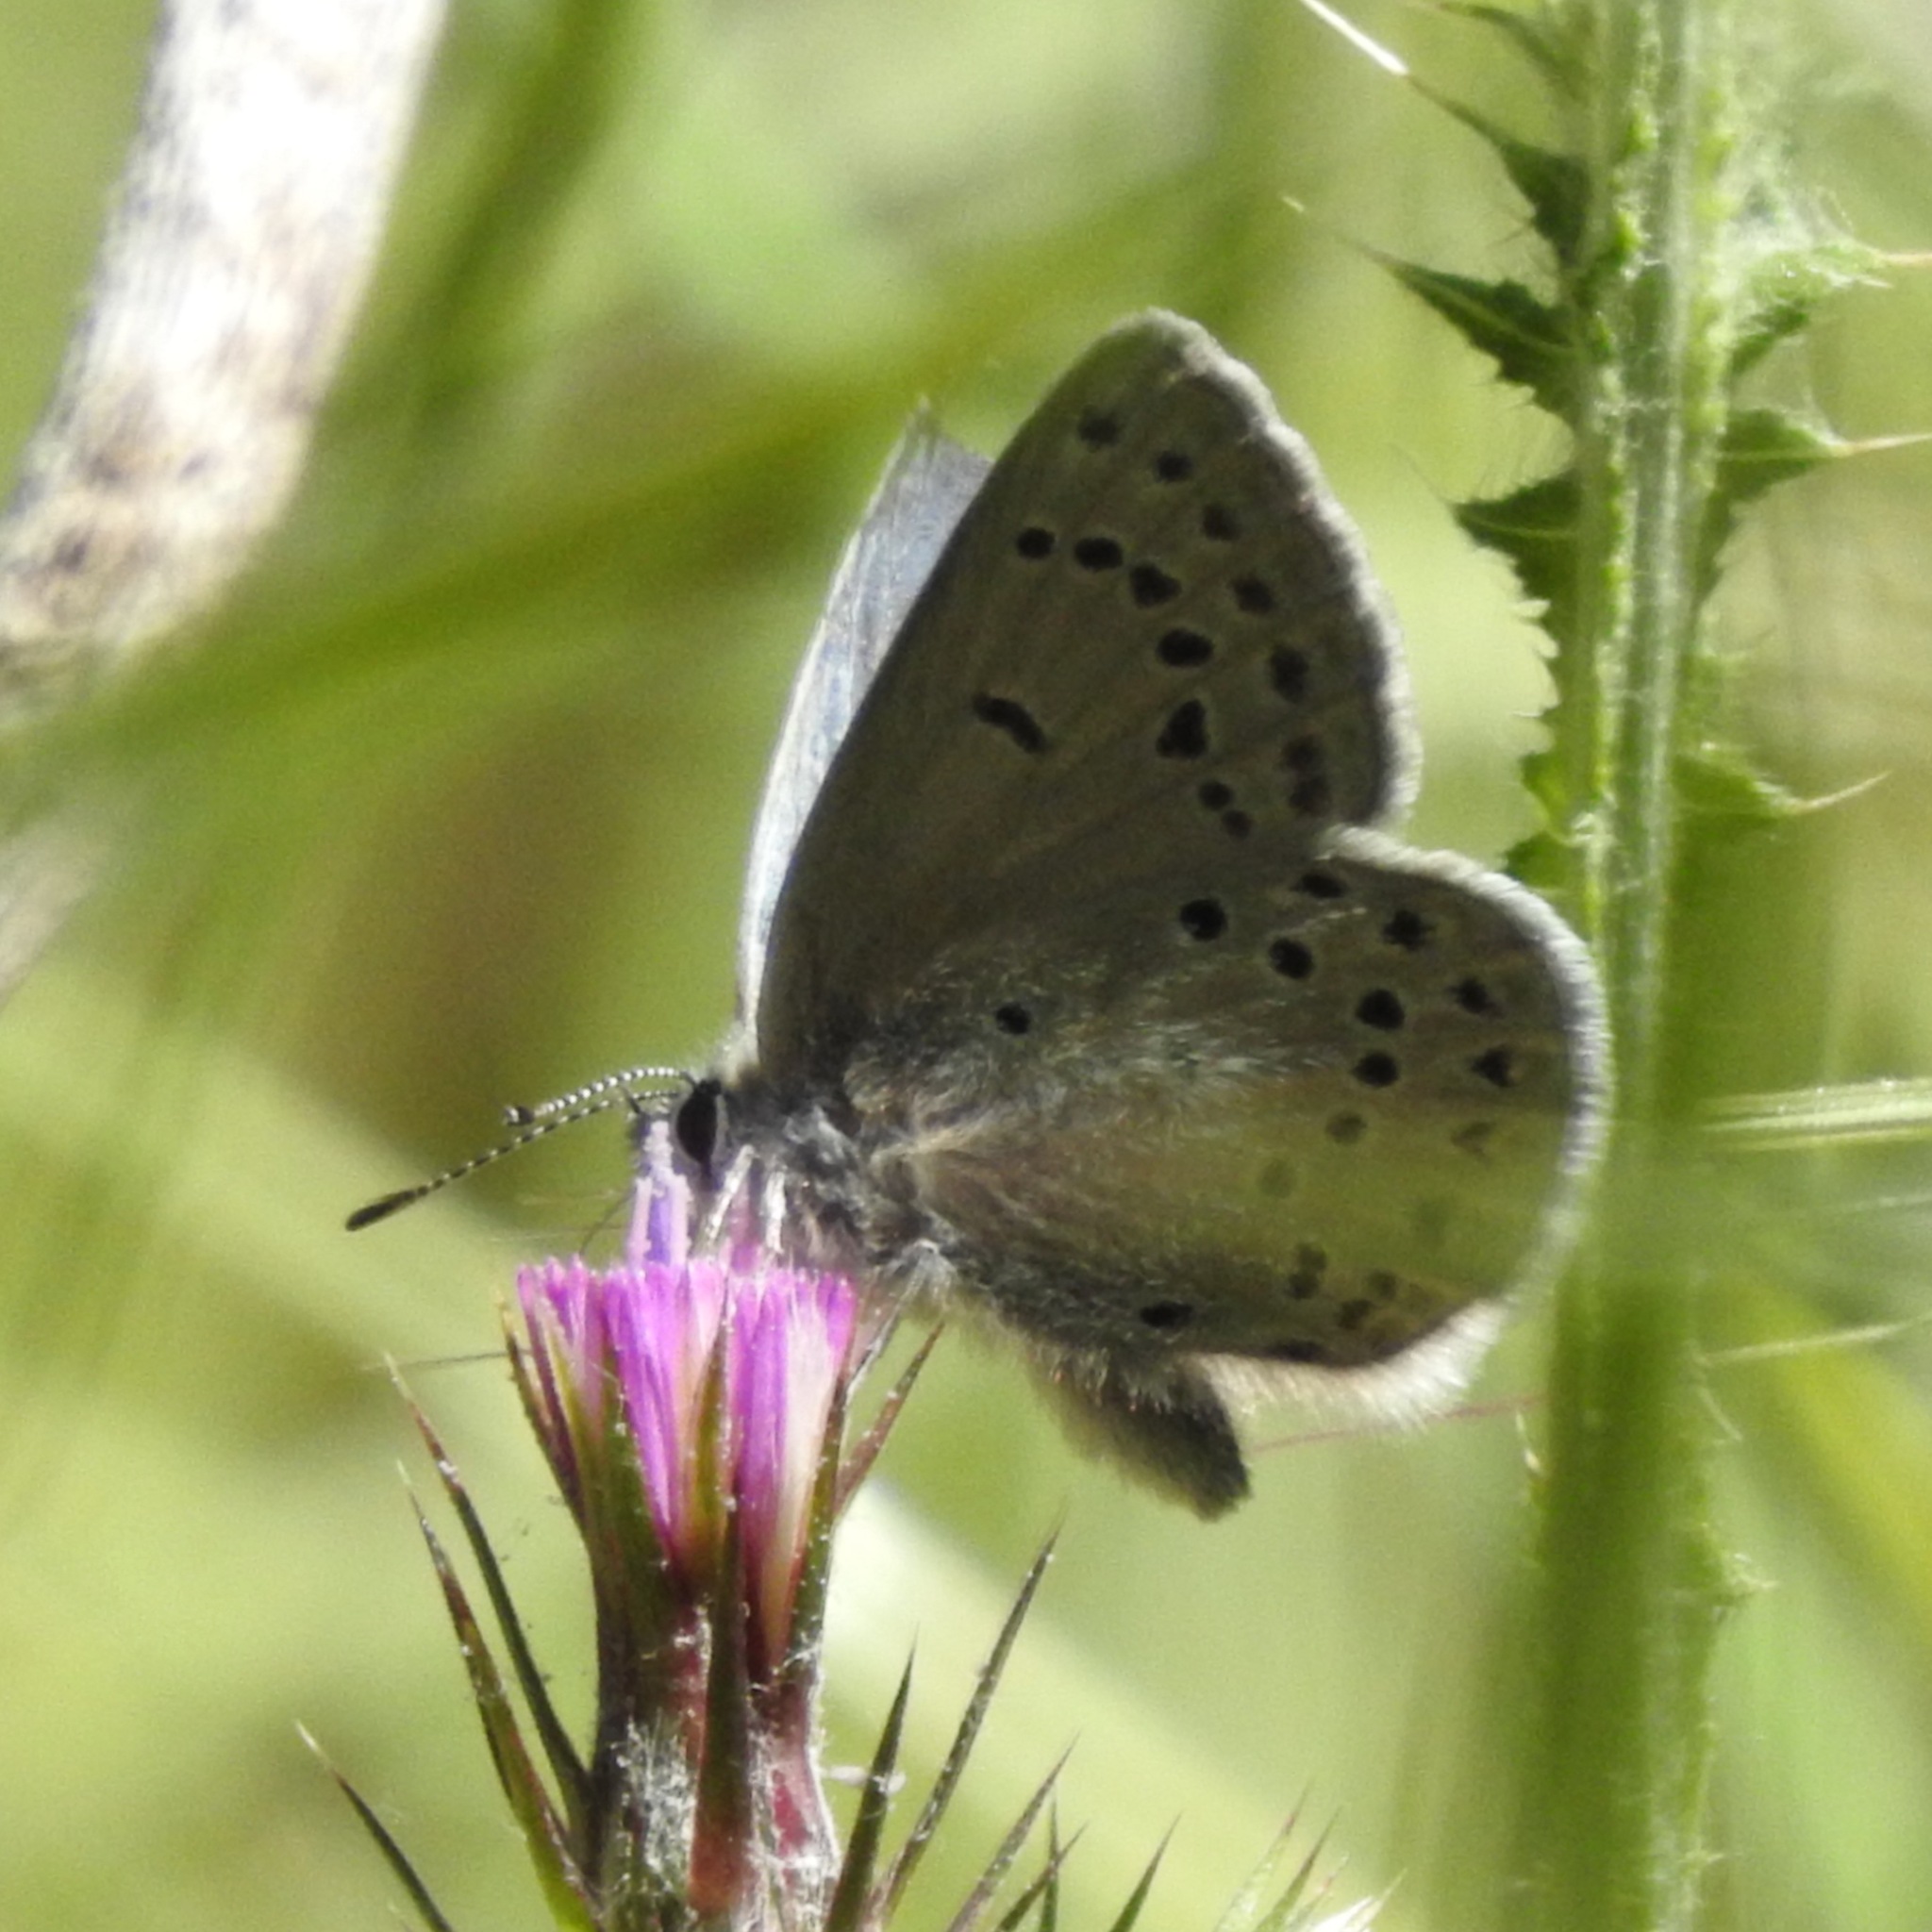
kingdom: Animalia
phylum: Arthropoda
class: Insecta
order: Lepidoptera
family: Lycaenidae
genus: Icaricia
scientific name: Icaricia icarioides
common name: Boisduval's blue
